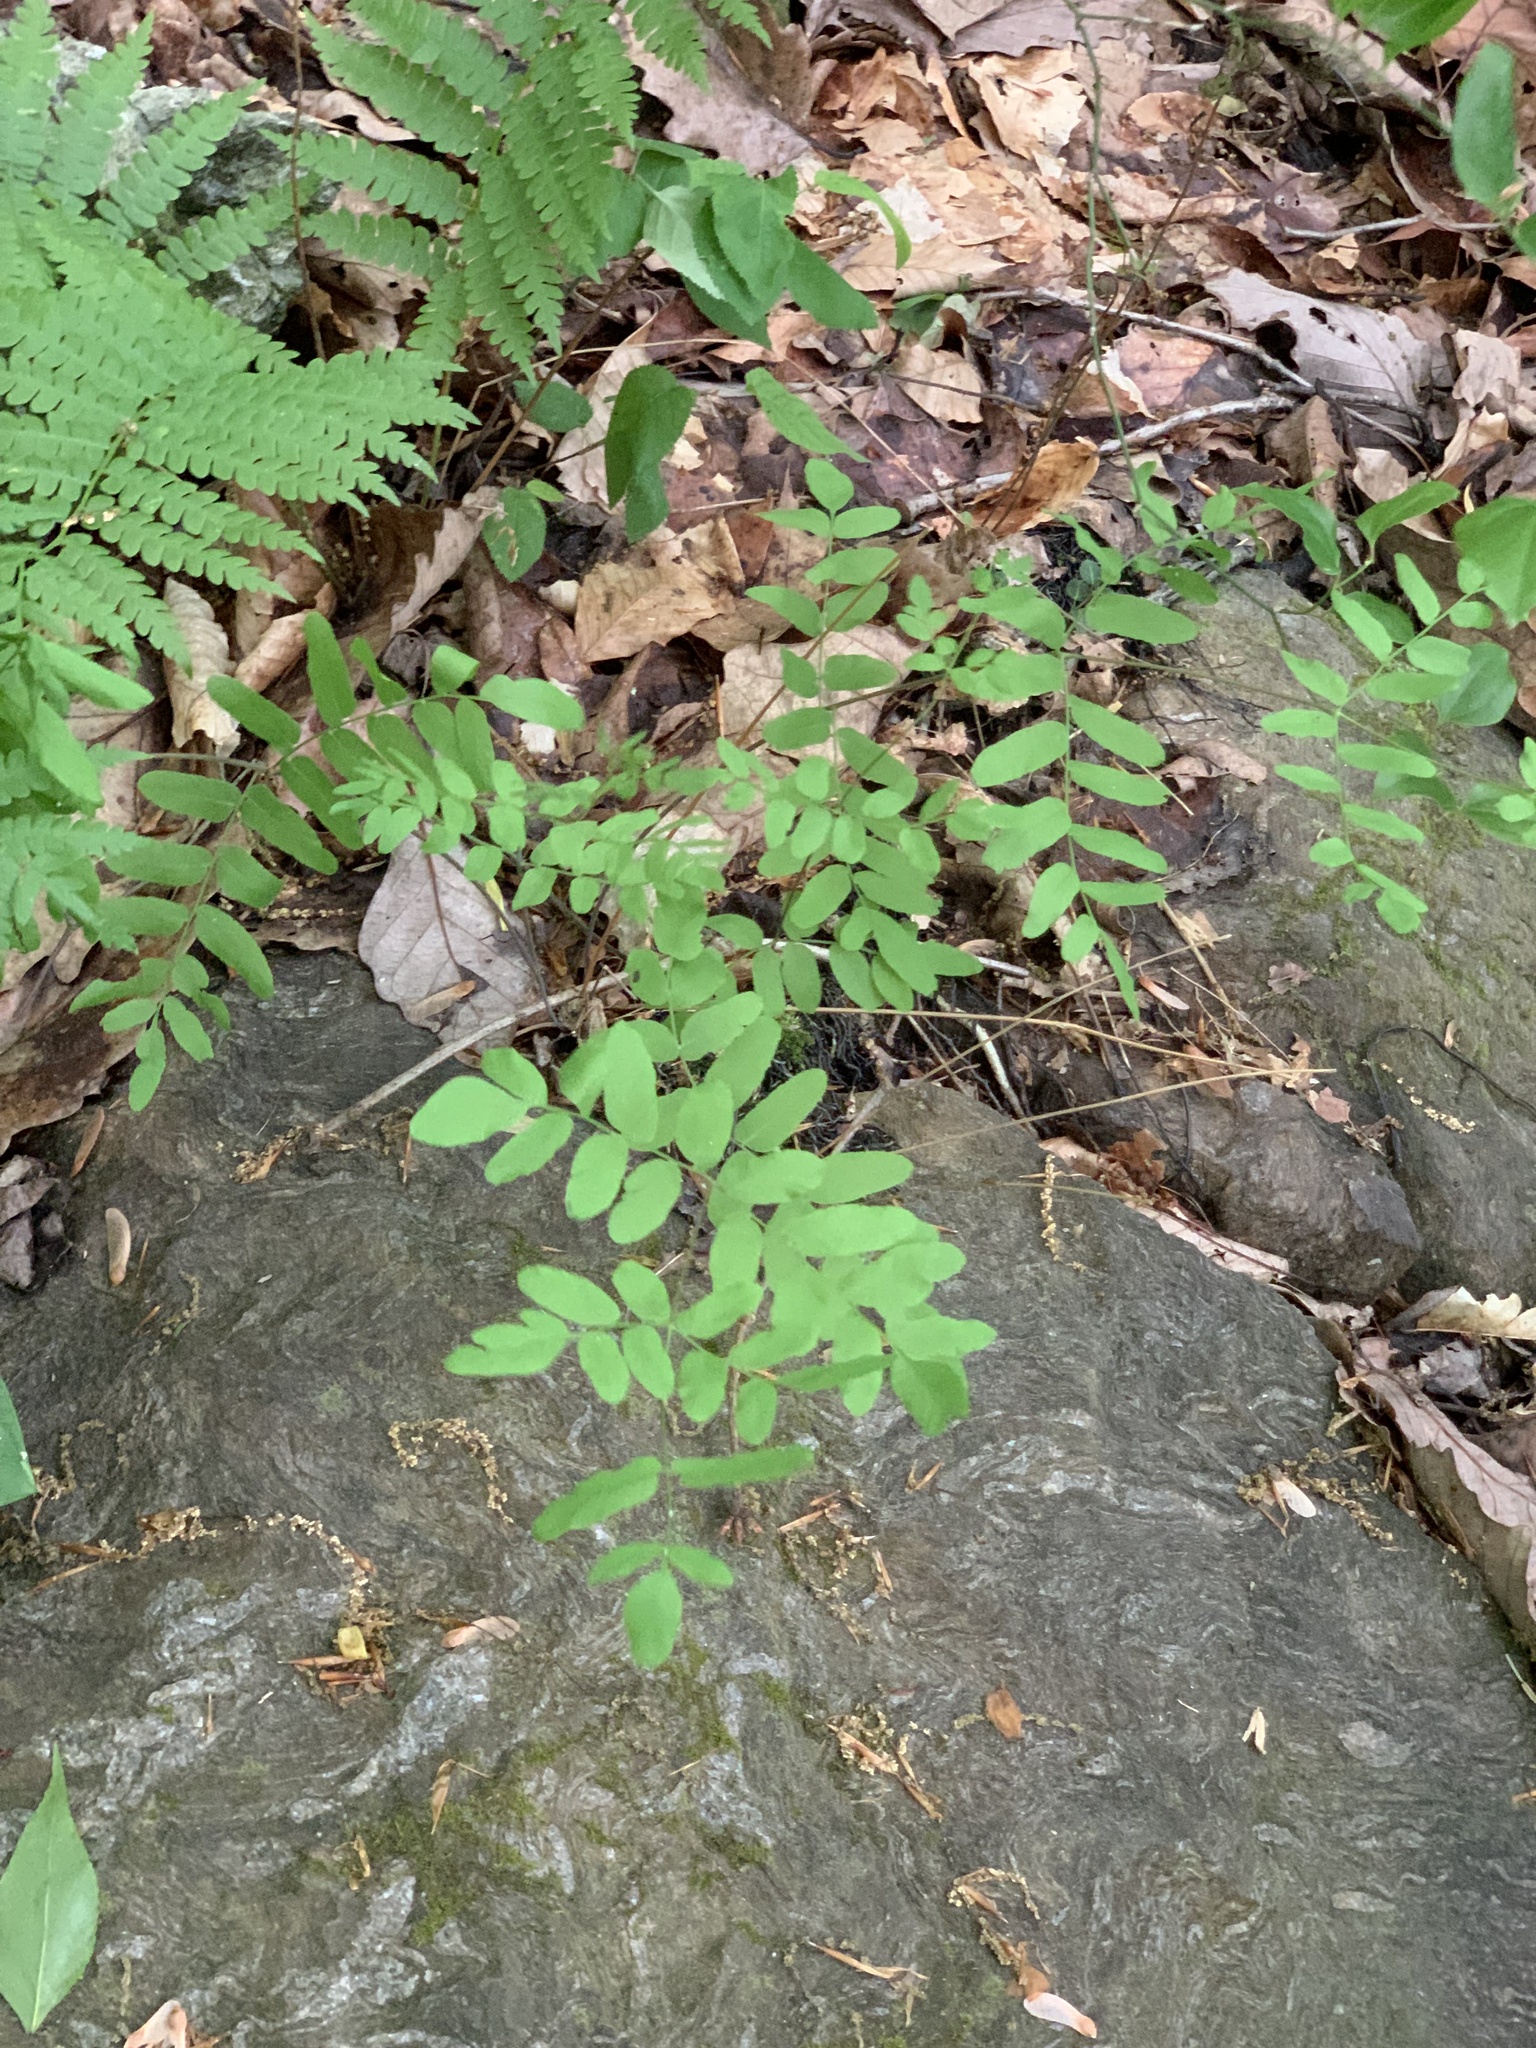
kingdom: Plantae
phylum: Tracheophyta
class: Polypodiopsida
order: Osmundales
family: Osmundaceae
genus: Osmunda
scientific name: Osmunda spectabilis
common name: American royal fern
